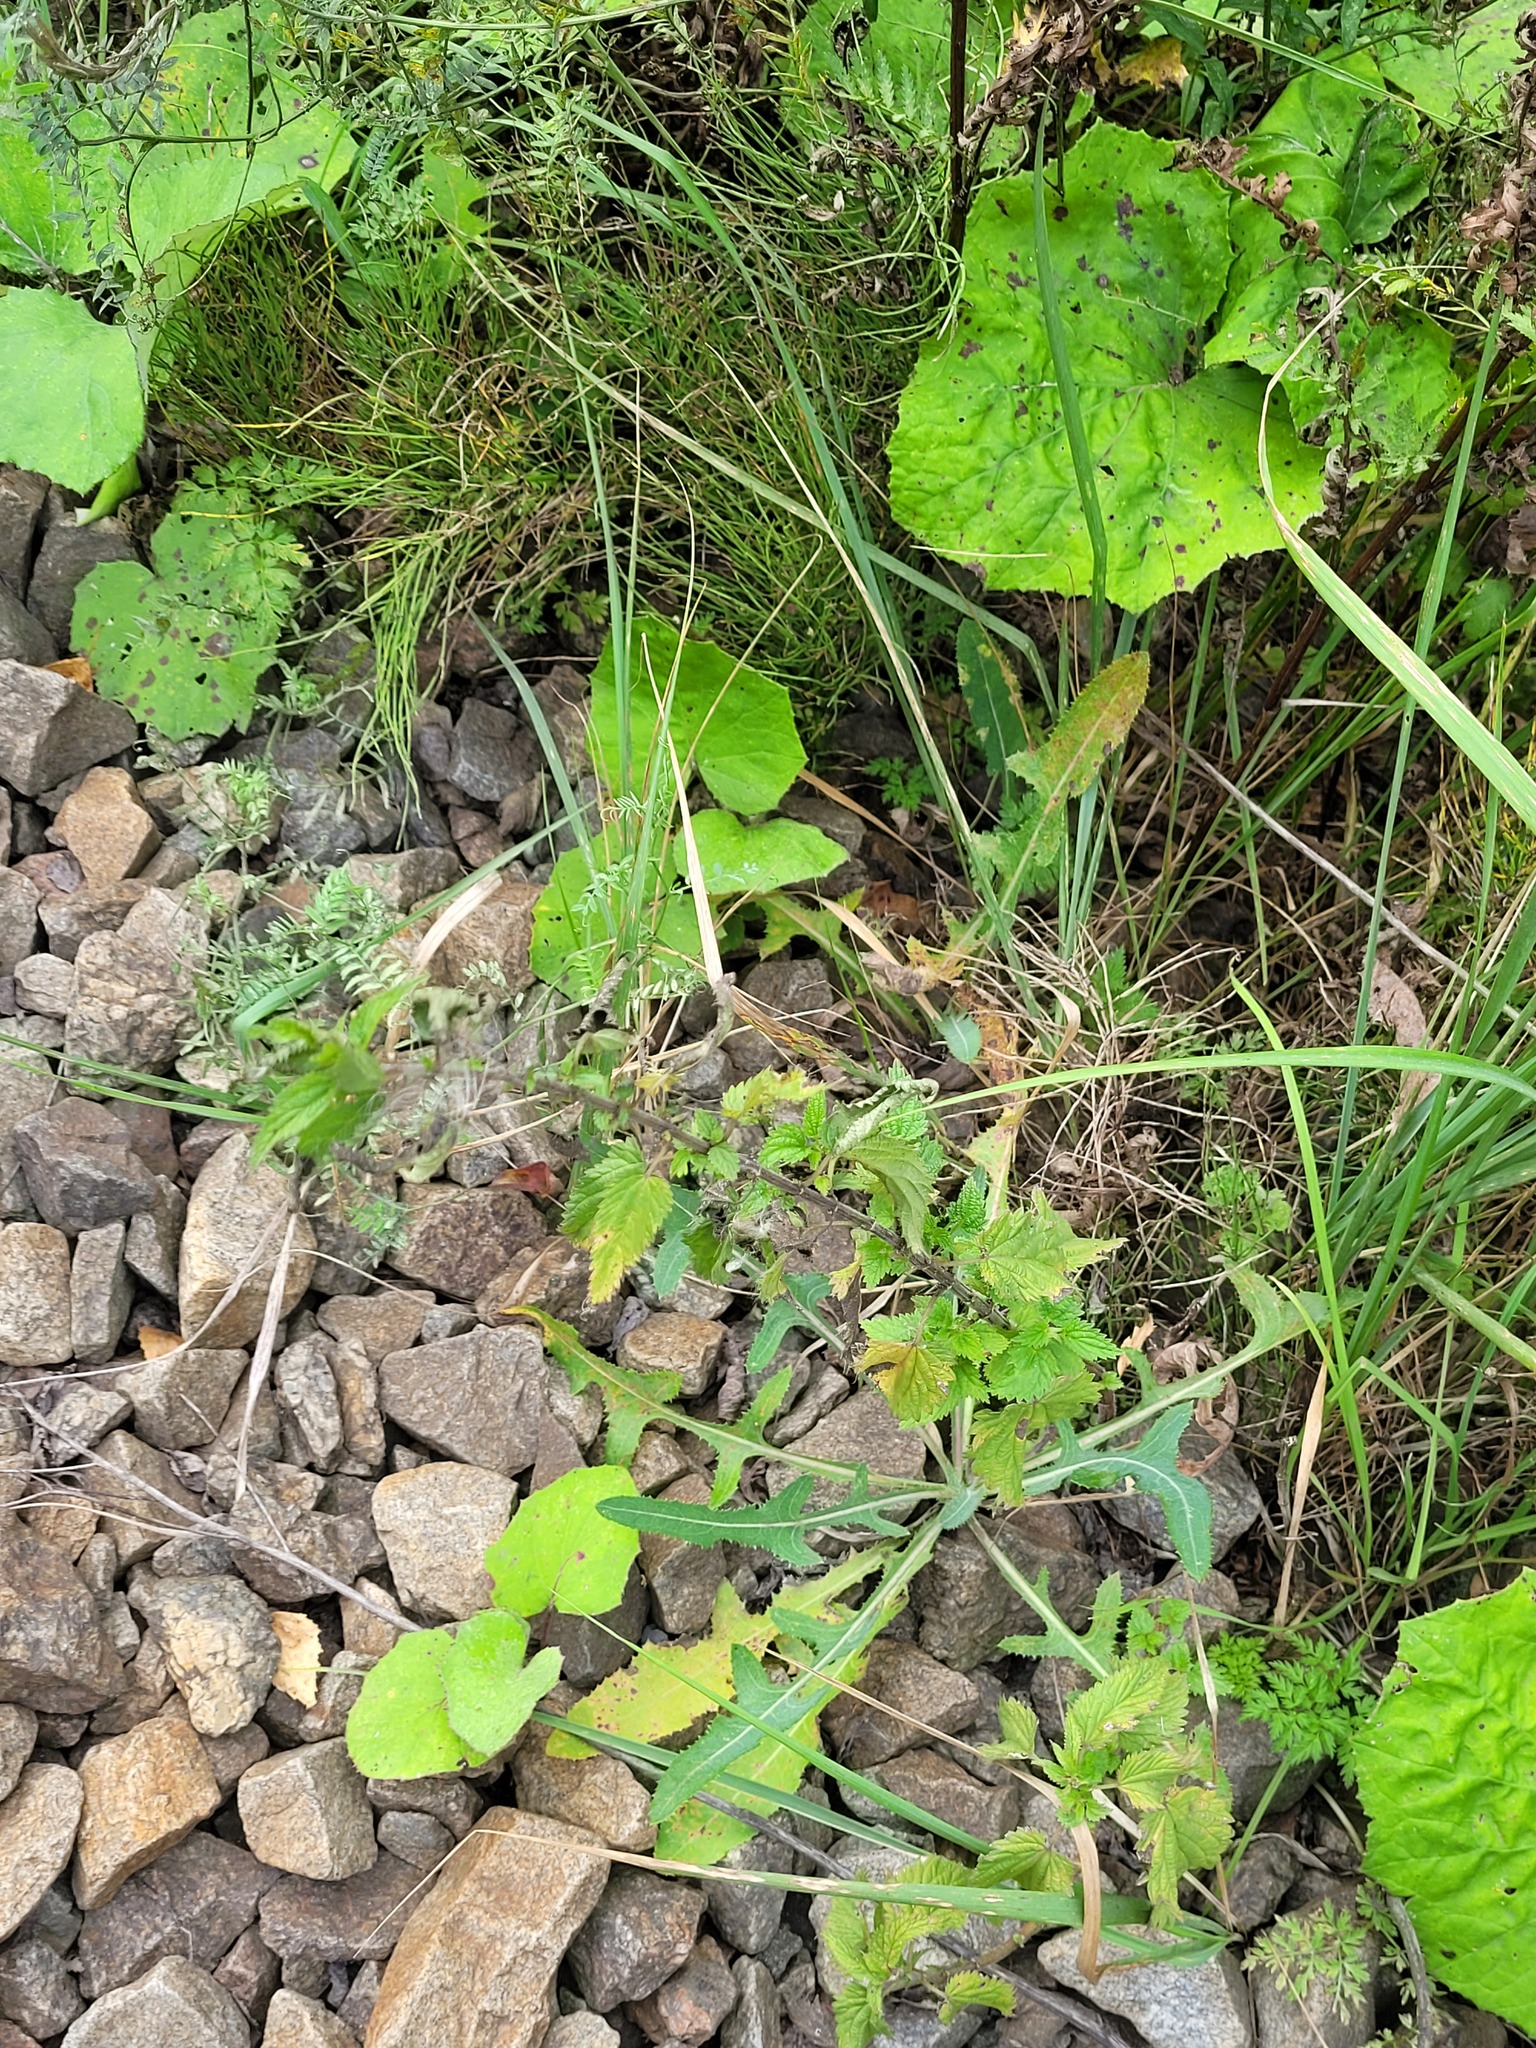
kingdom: Plantae
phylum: Tracheophyta
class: Magnoliopsida
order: Rosales
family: Urticaceae
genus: Urtica
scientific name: Urtica dioica
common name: Common nettle
